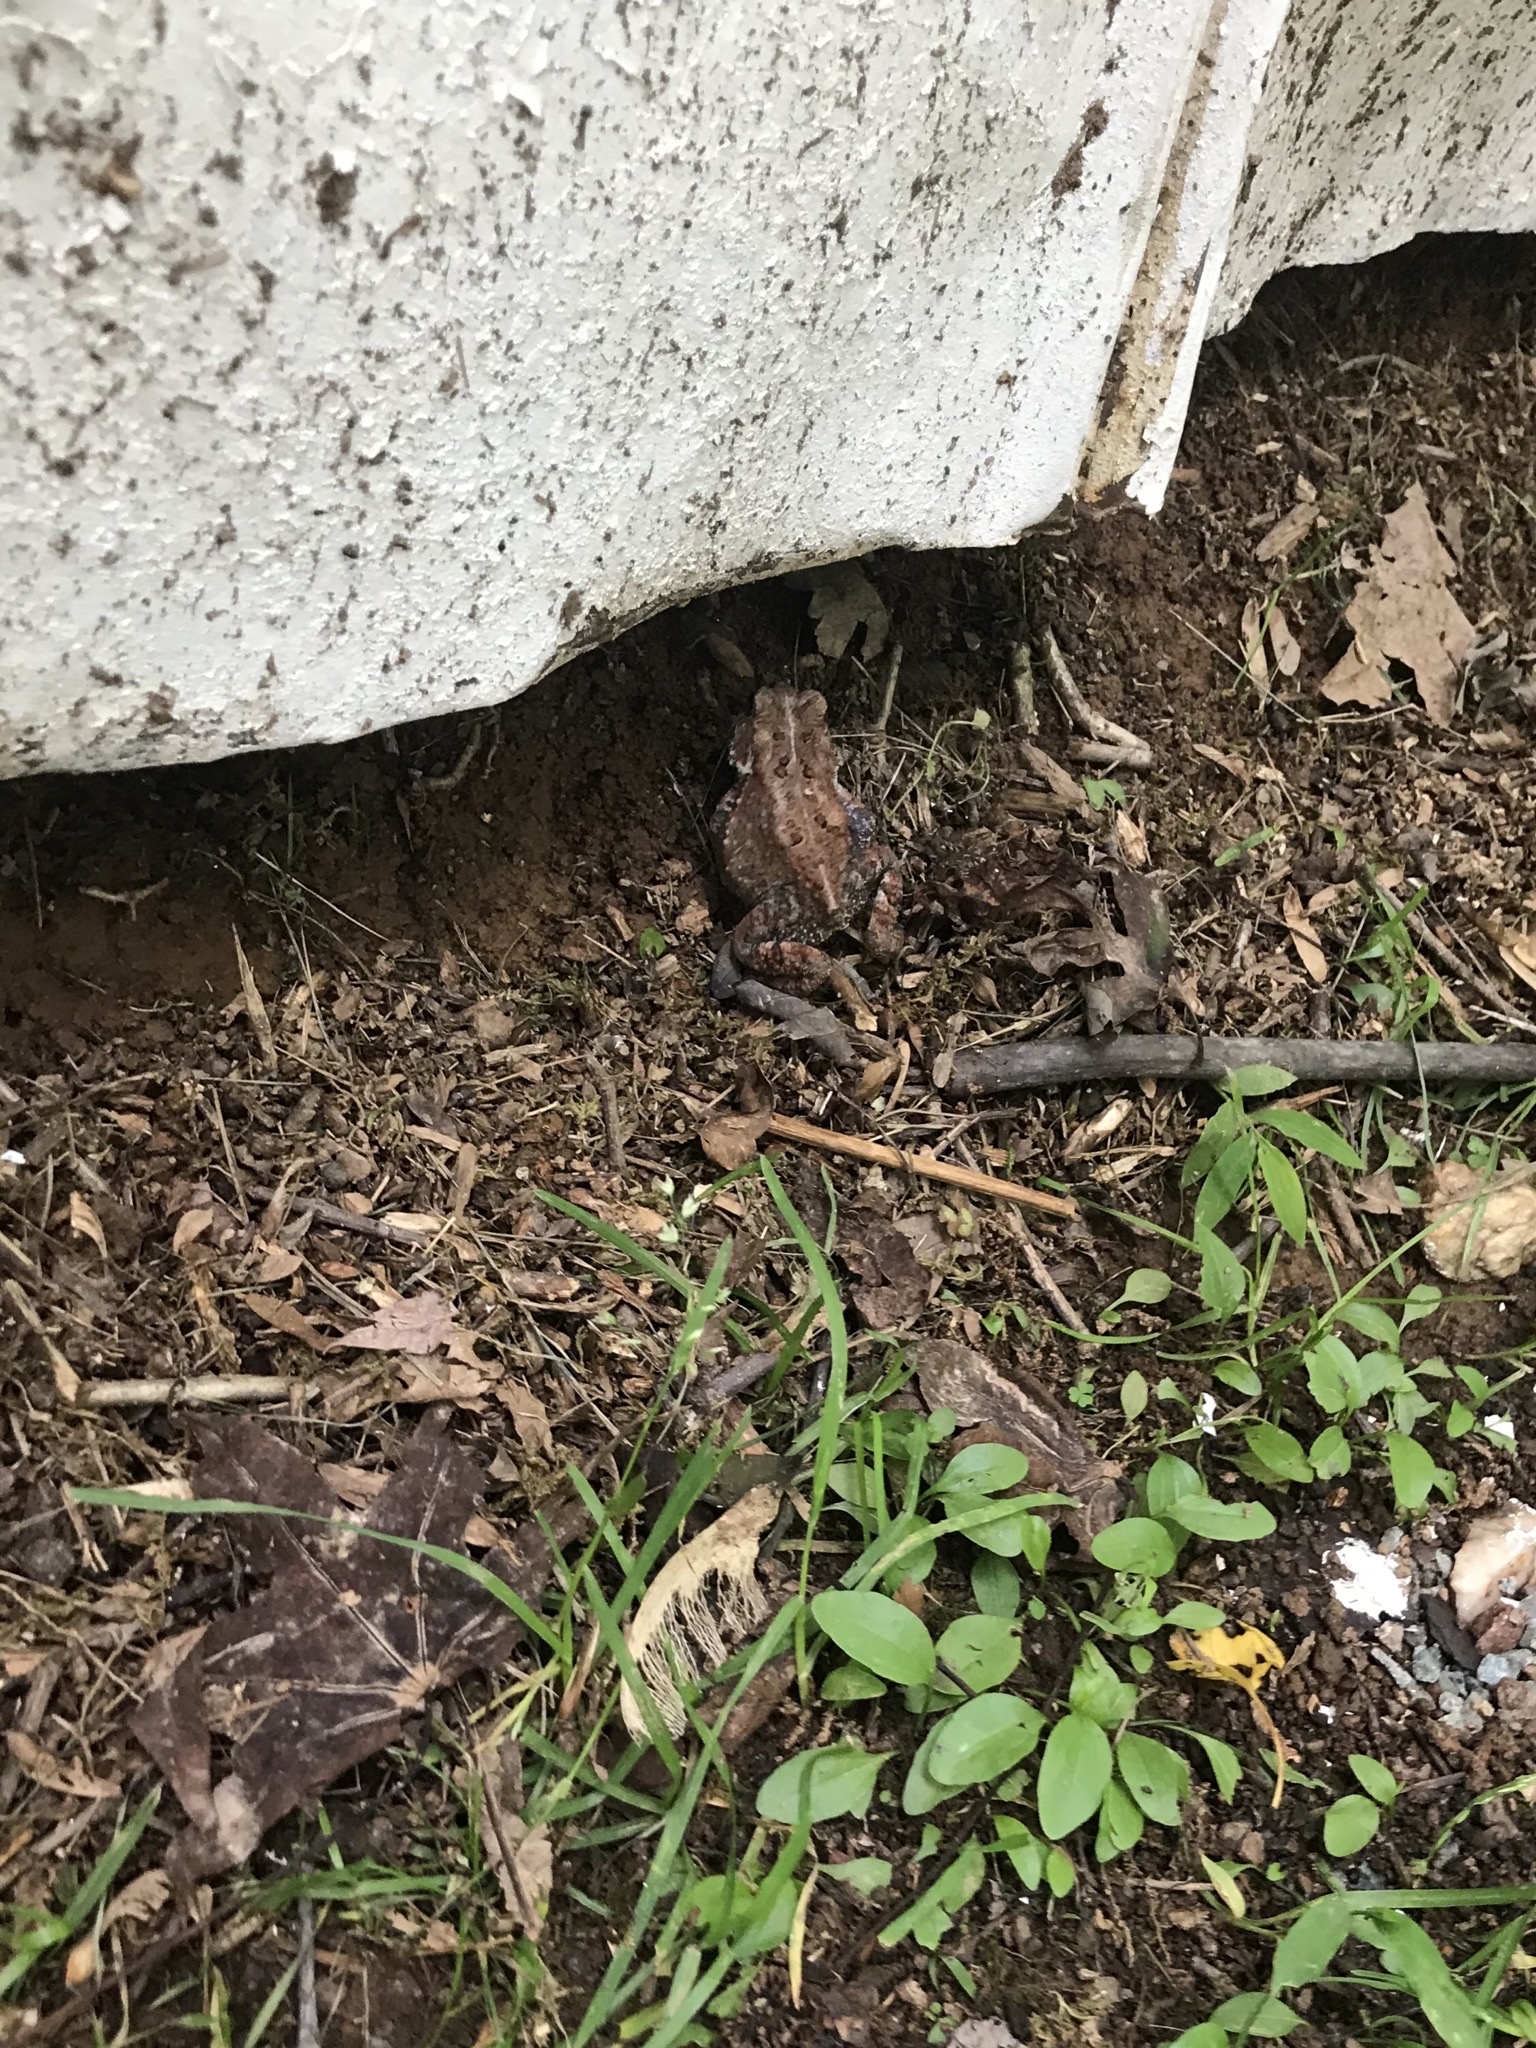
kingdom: Animalia
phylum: Chordata
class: Amphibia
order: Anura
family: Bufonidae
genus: Anaxyrus
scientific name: Anaxyrus americanus
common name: American toad
